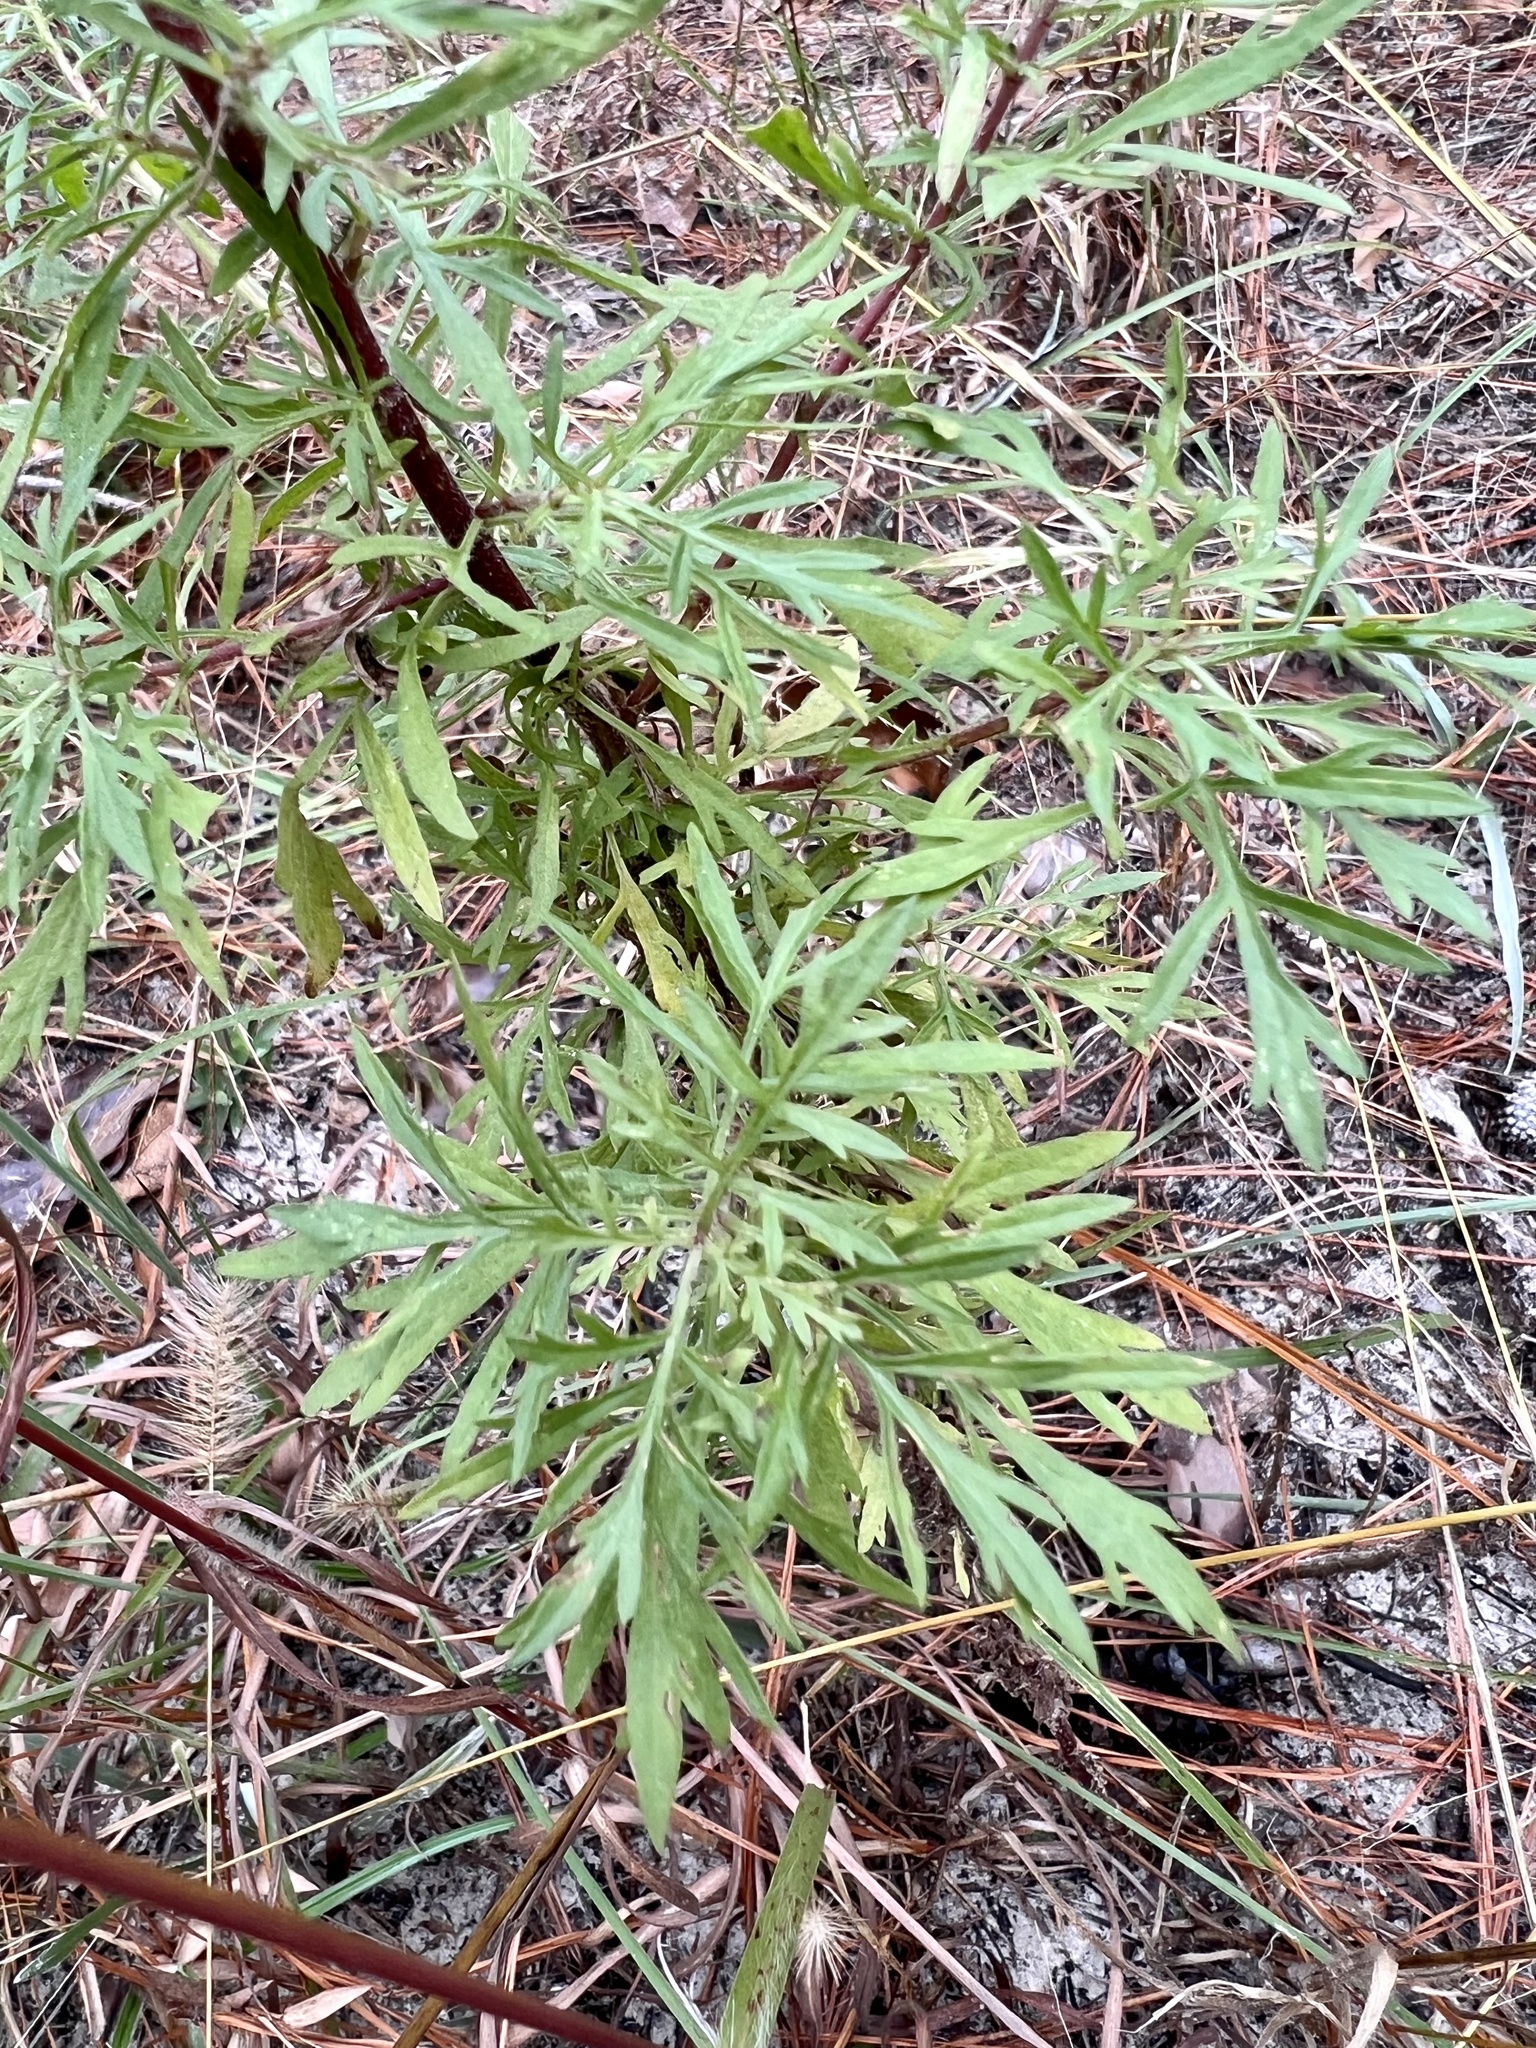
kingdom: Plantae
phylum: Tracheophyta
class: Magnoliopsida
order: Asterales
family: Asteraceae
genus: Eupatorium
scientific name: Eupatorium compositifolium
